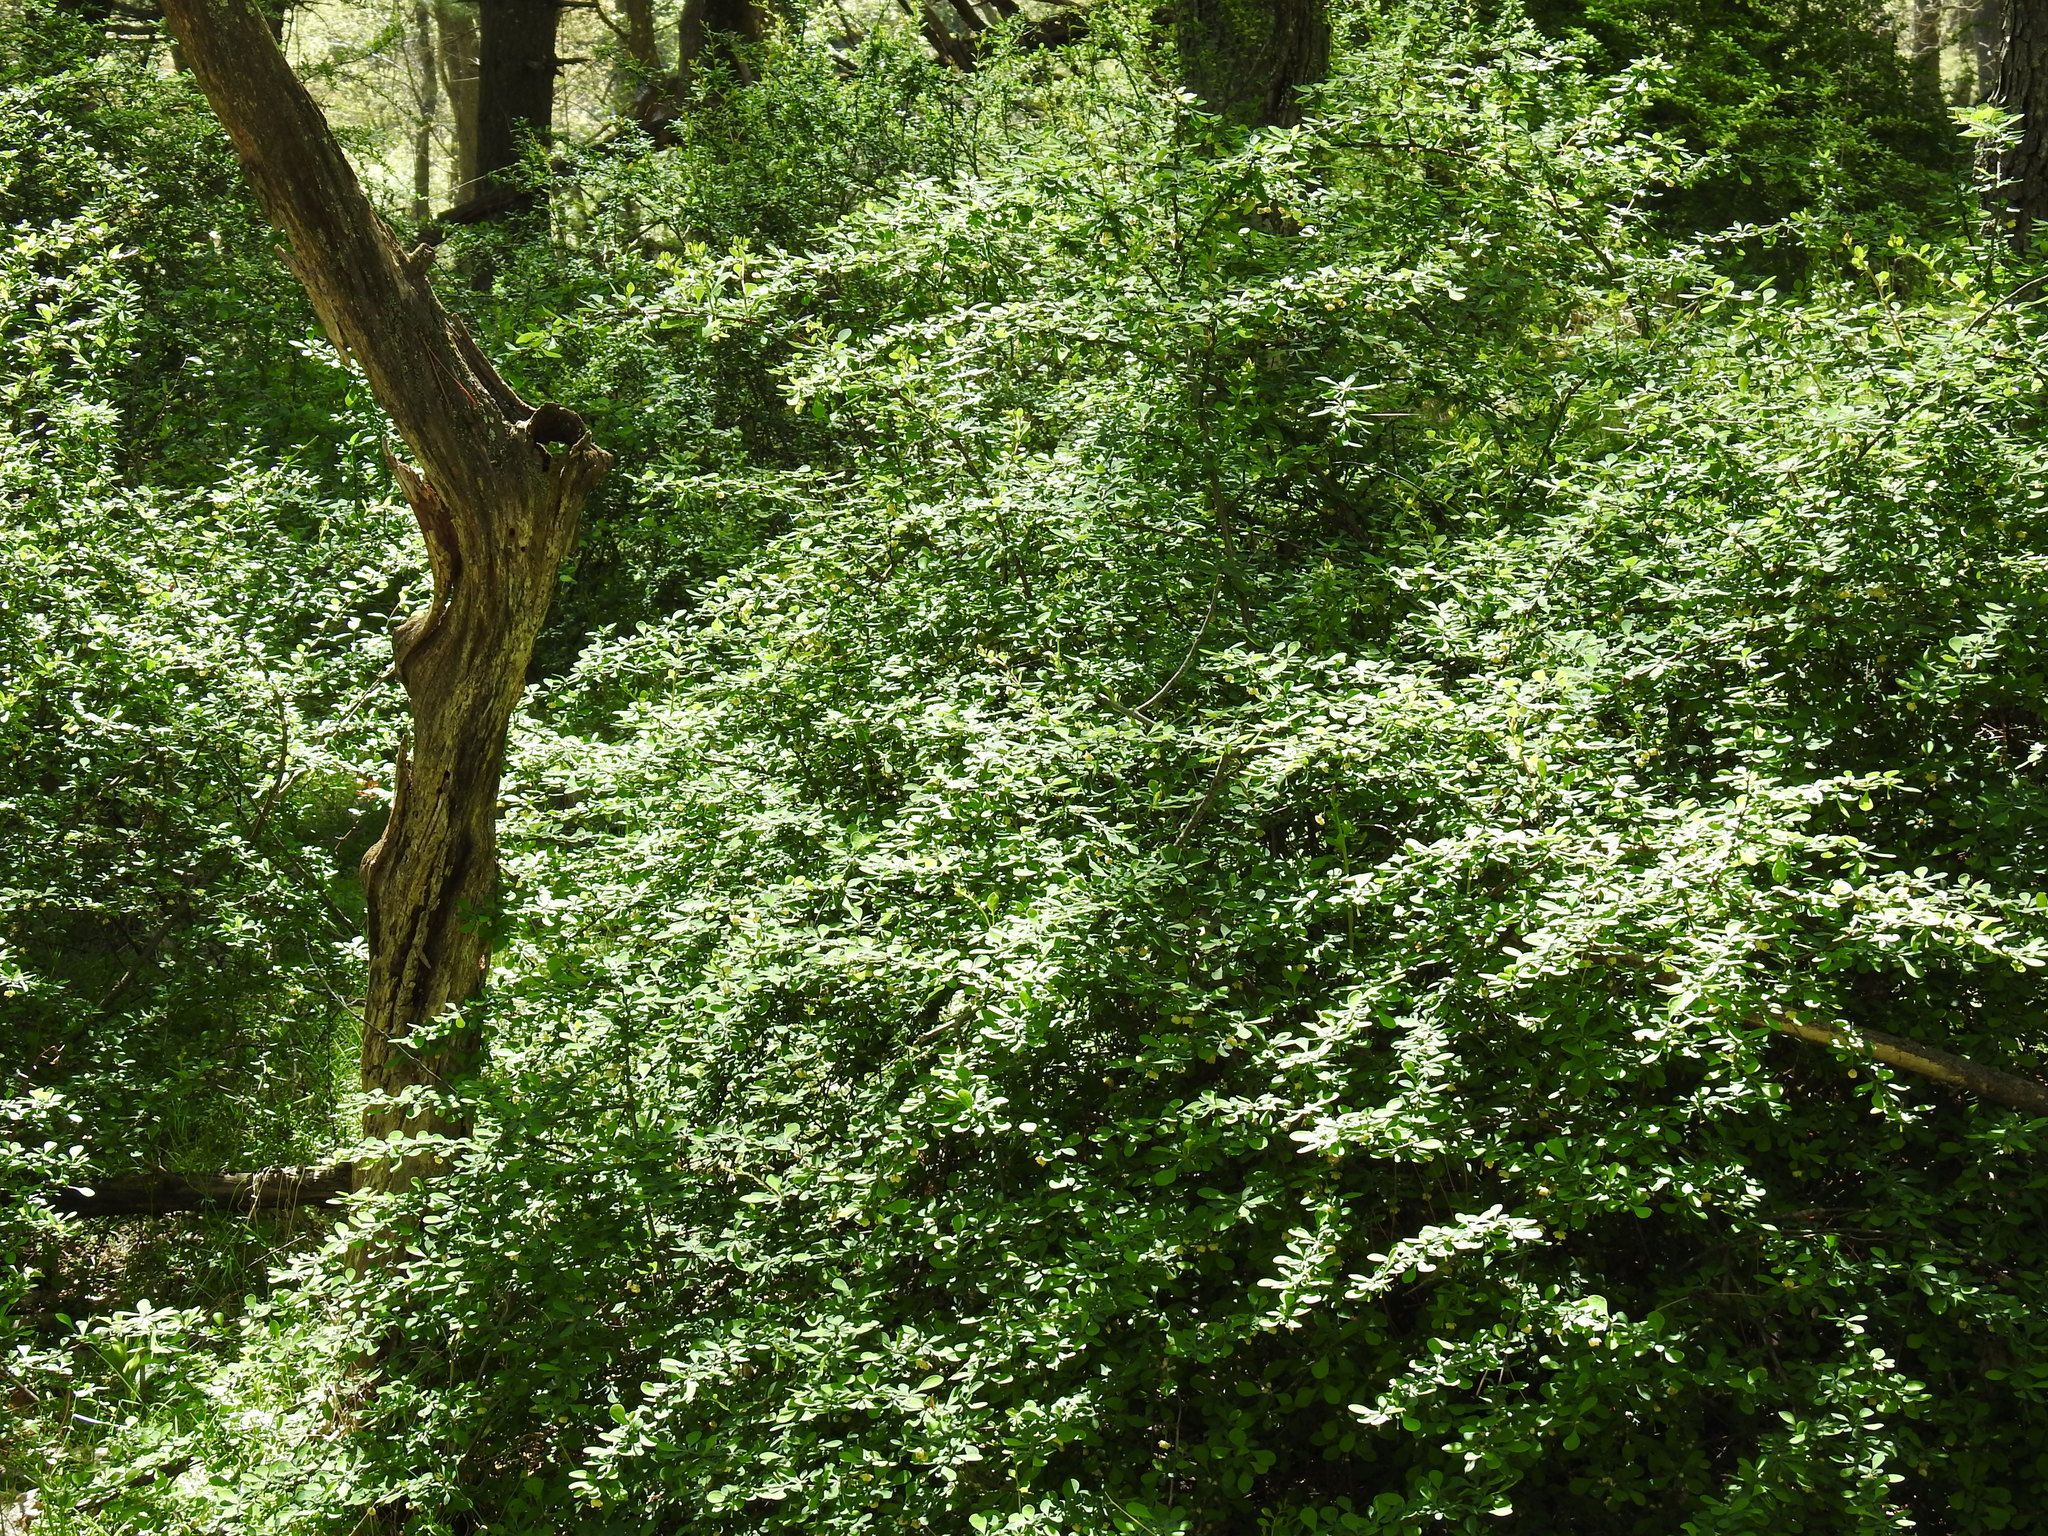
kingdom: Plantae
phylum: Tracheophyta
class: Magnoliopsida
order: Ranunculales
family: Berberidaceae
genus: Berberis
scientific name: Berberis thunbergii
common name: Japanese barberry
